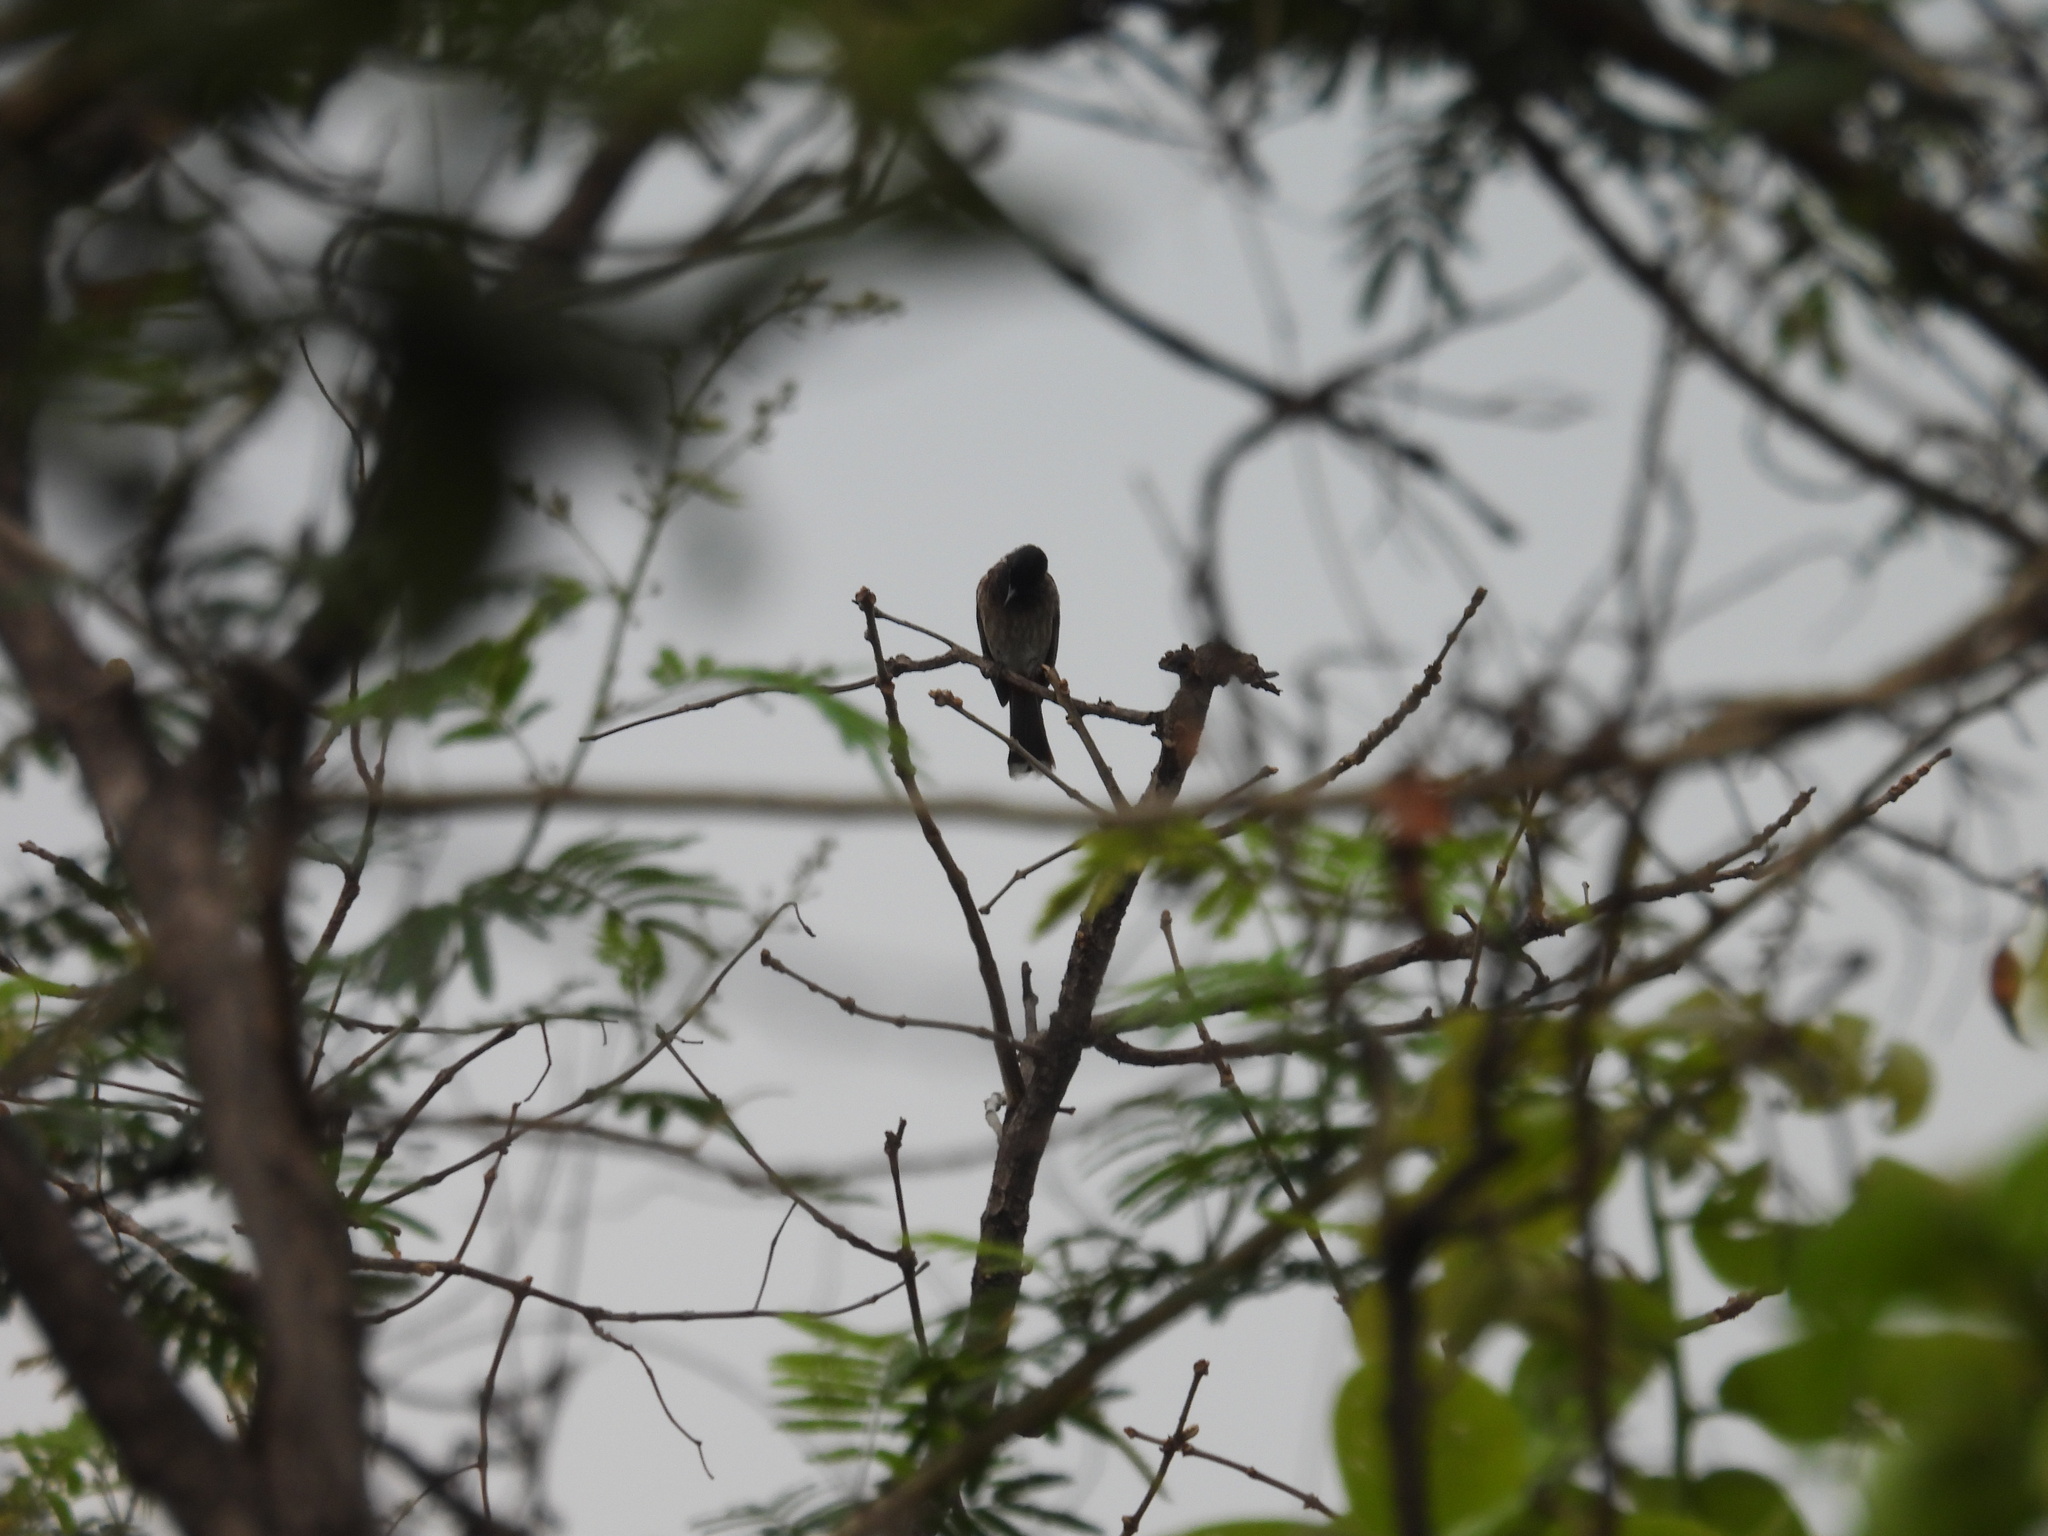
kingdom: Animalia
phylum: Chordata
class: Aves
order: Passeriformes
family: Pycnonotidae
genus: Pycnonotus
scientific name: Pycnonotus cafer
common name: Red-vented bulbul
